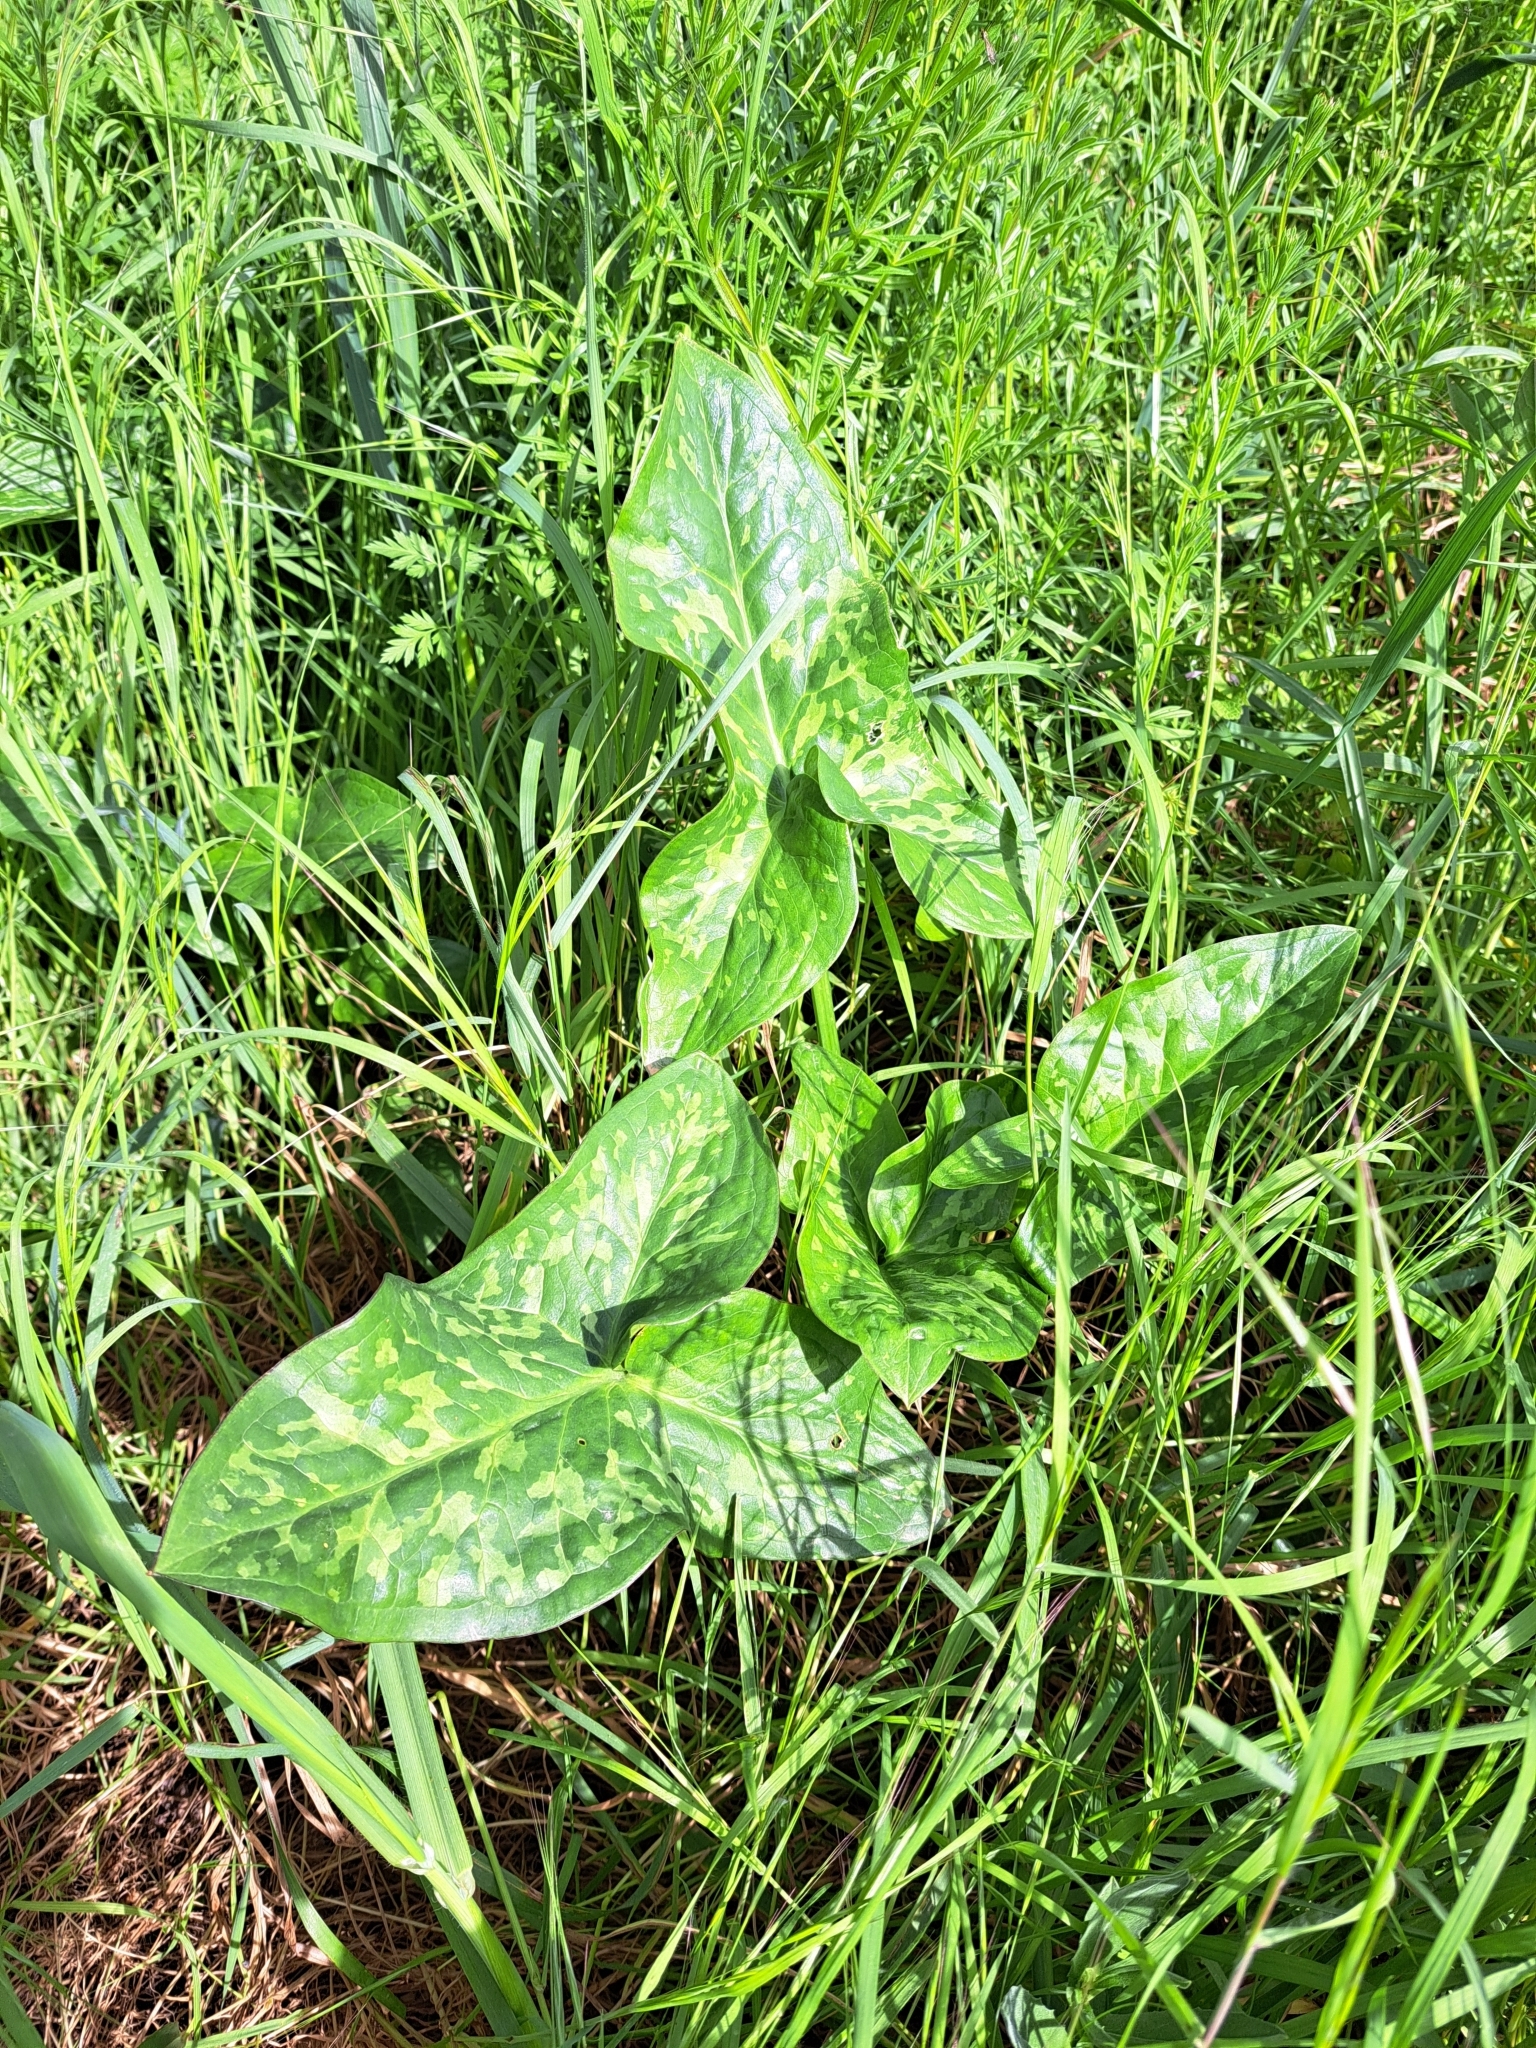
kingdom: Plantae
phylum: Tracheophyta
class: Liliopsida
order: Alismatales
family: Araceae
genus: Arum
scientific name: Arum italicum
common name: Italian lords-and-ladies
